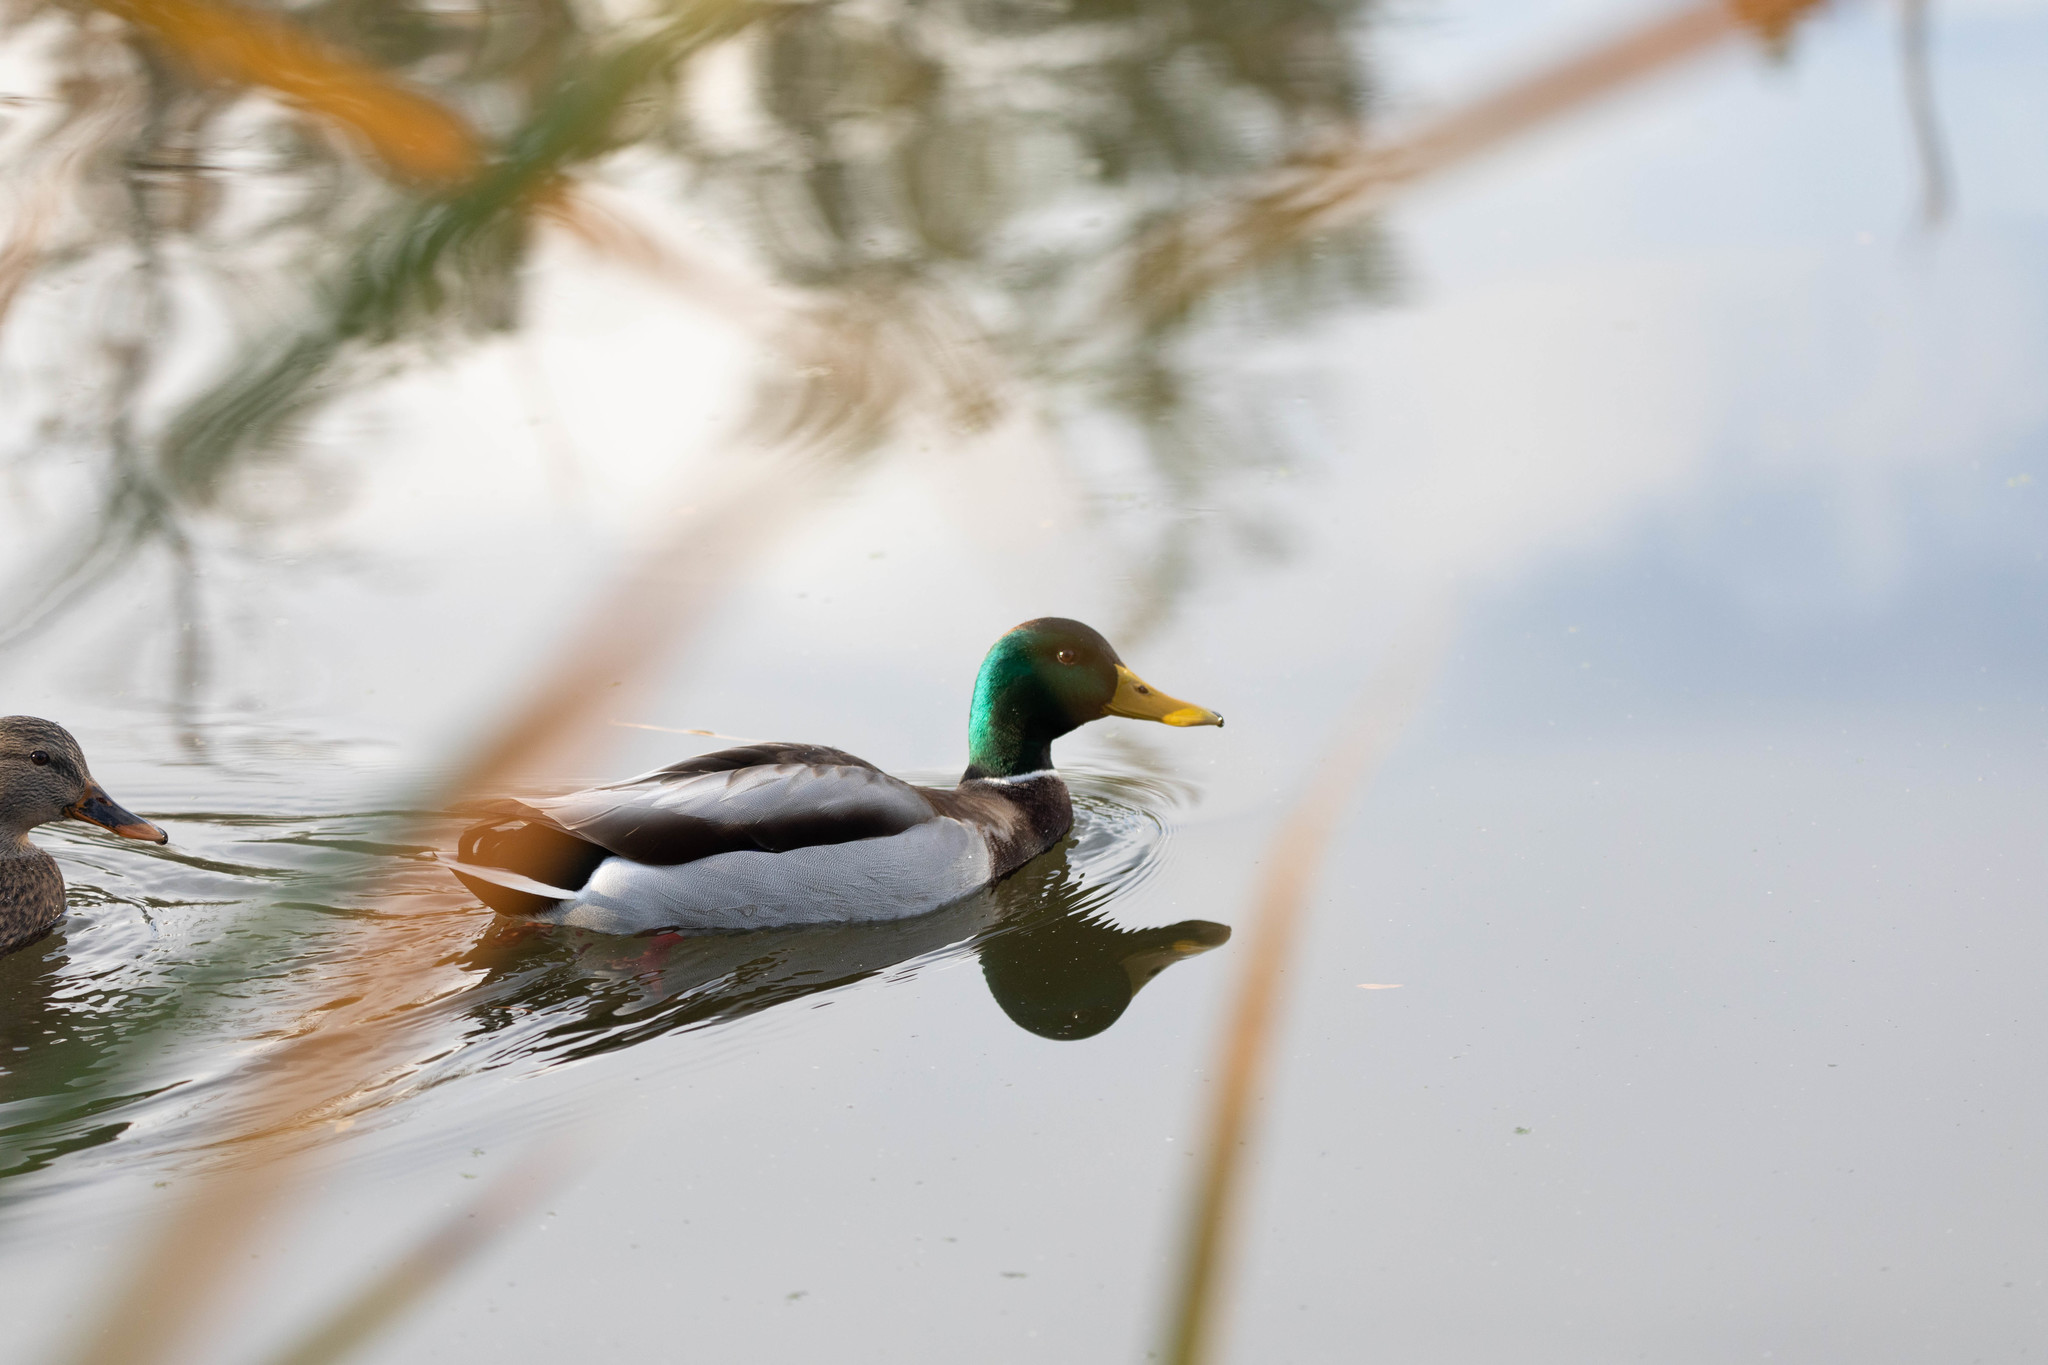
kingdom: Animalia
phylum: Chordata
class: Aves
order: Anseriformes
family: Anatidae
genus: Anas
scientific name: Anas platyrhynchos
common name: Mallard
